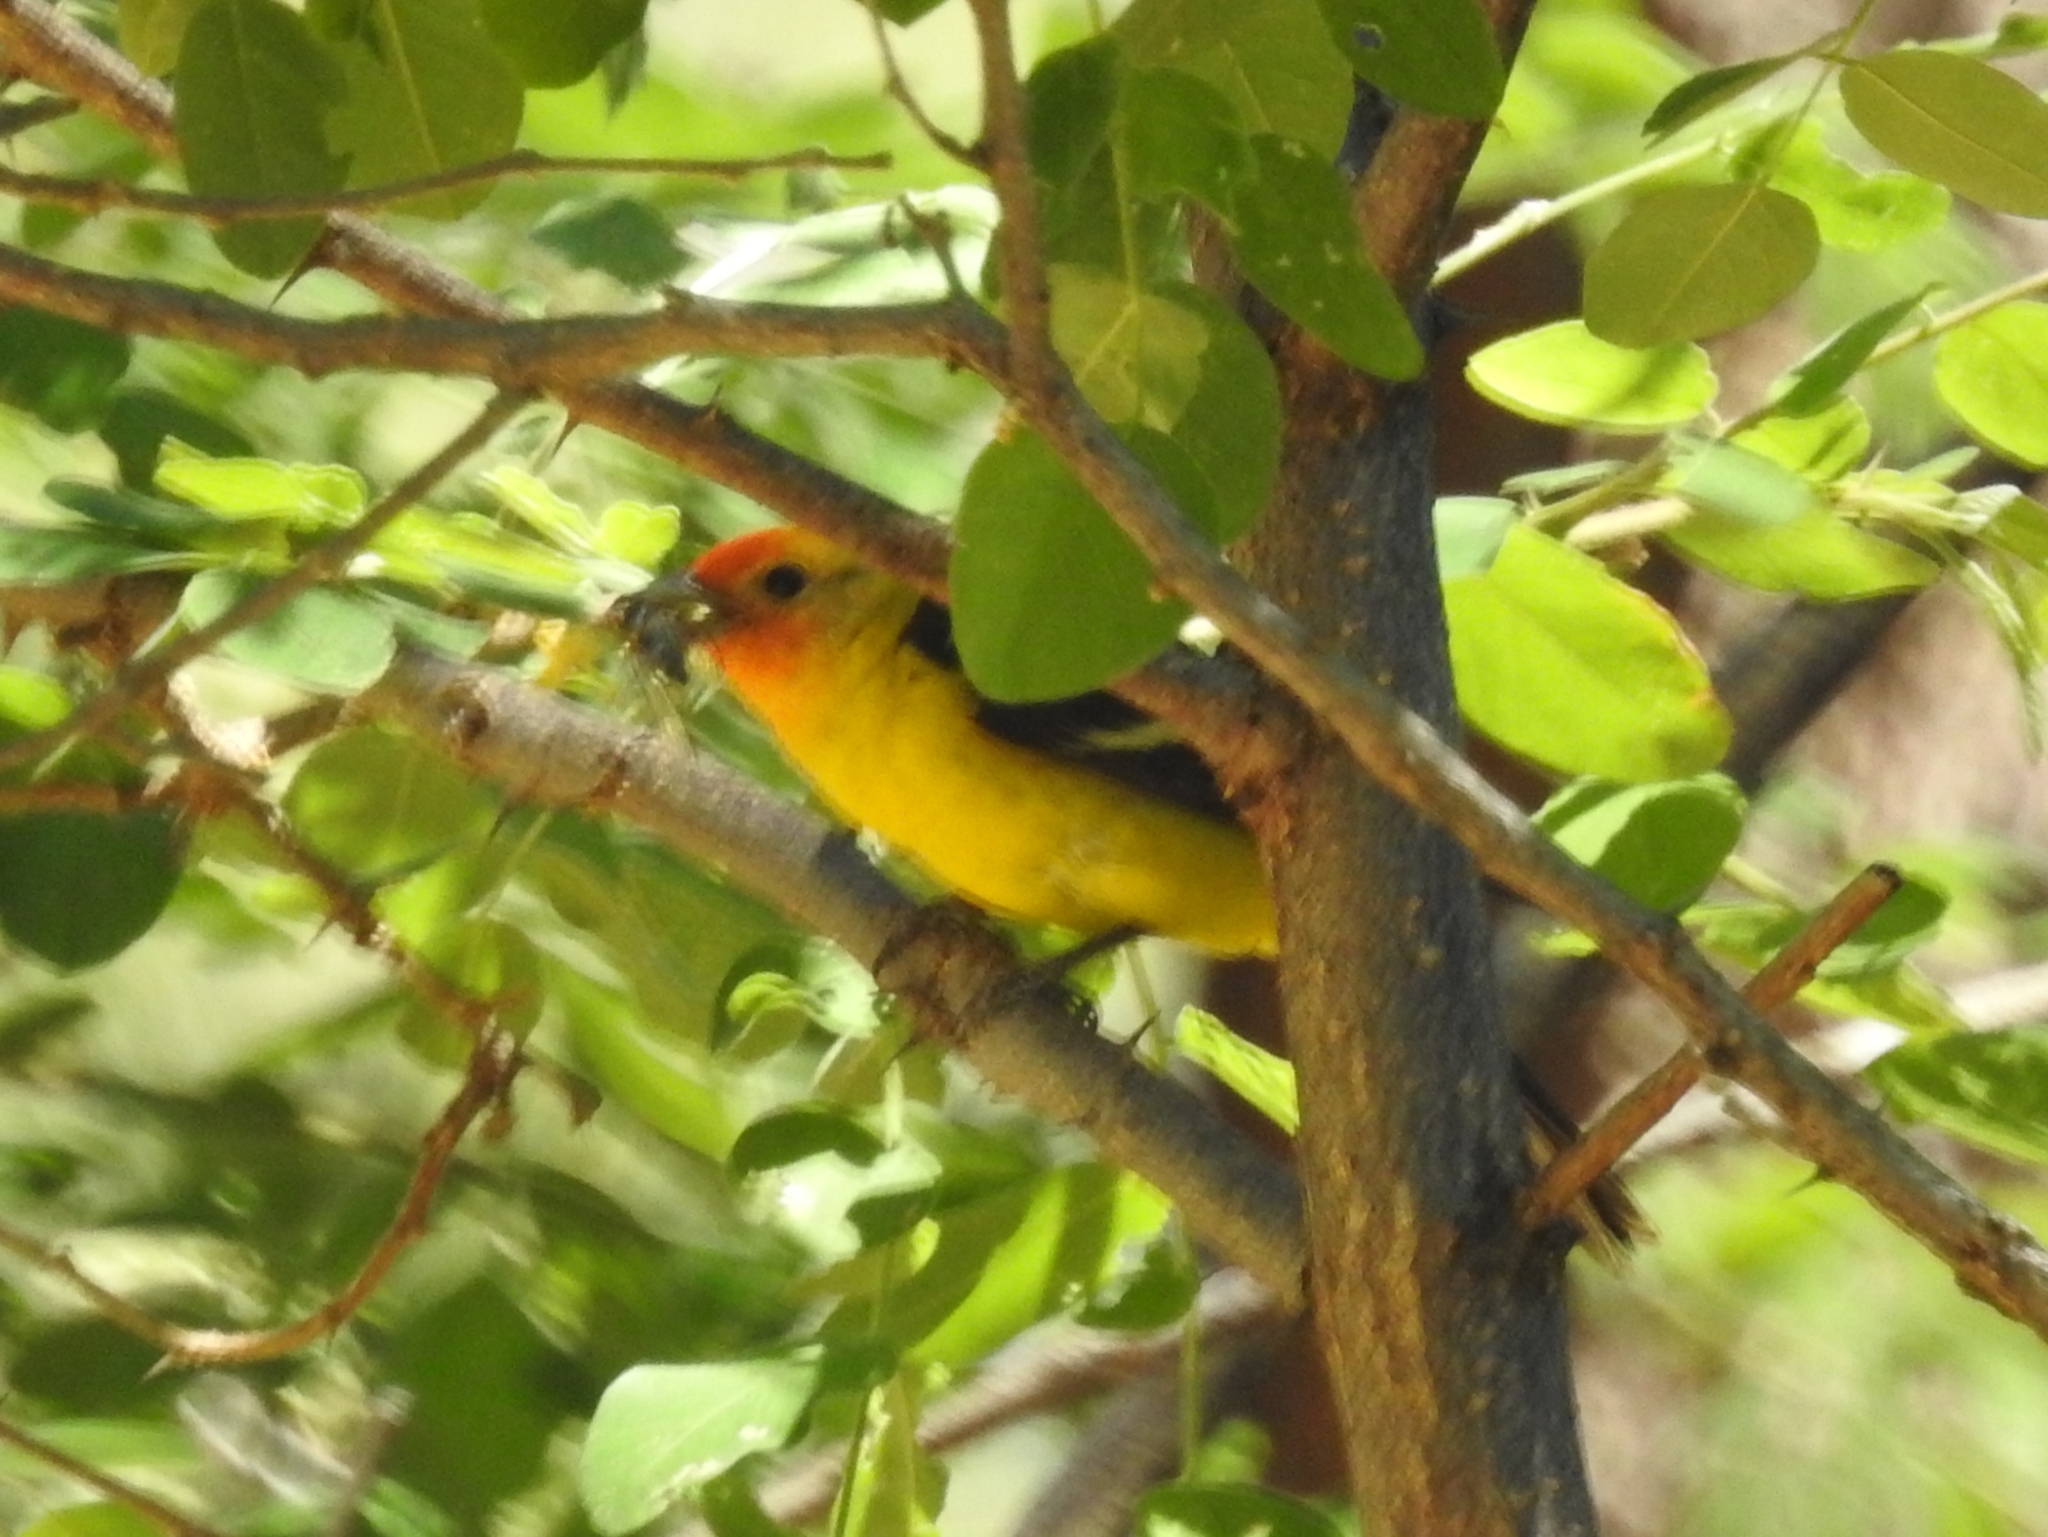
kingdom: Animalia
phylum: Chordata
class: Aves
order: Passeriformes
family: Cardinalidae
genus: Piranga
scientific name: Piranga ludoviciana
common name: Western tanager
